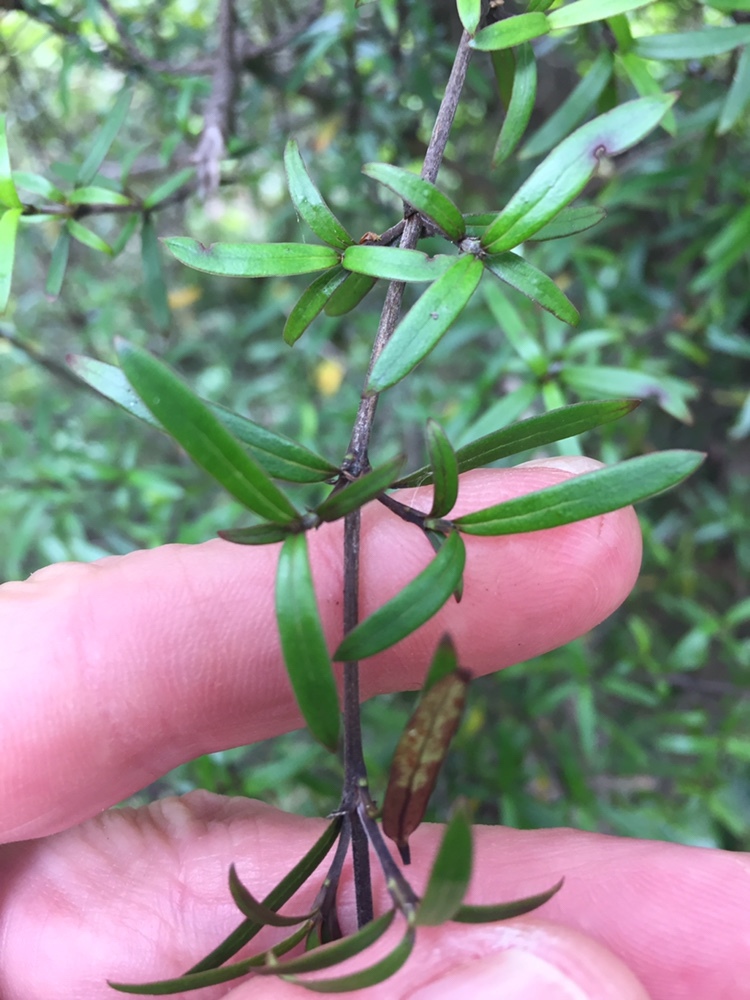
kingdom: Plantae
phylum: Tracheophyta
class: Magnoliopsida
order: Gentianales
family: Rubiaceae
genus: Coprosma
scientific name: Coprosma linariifolia
